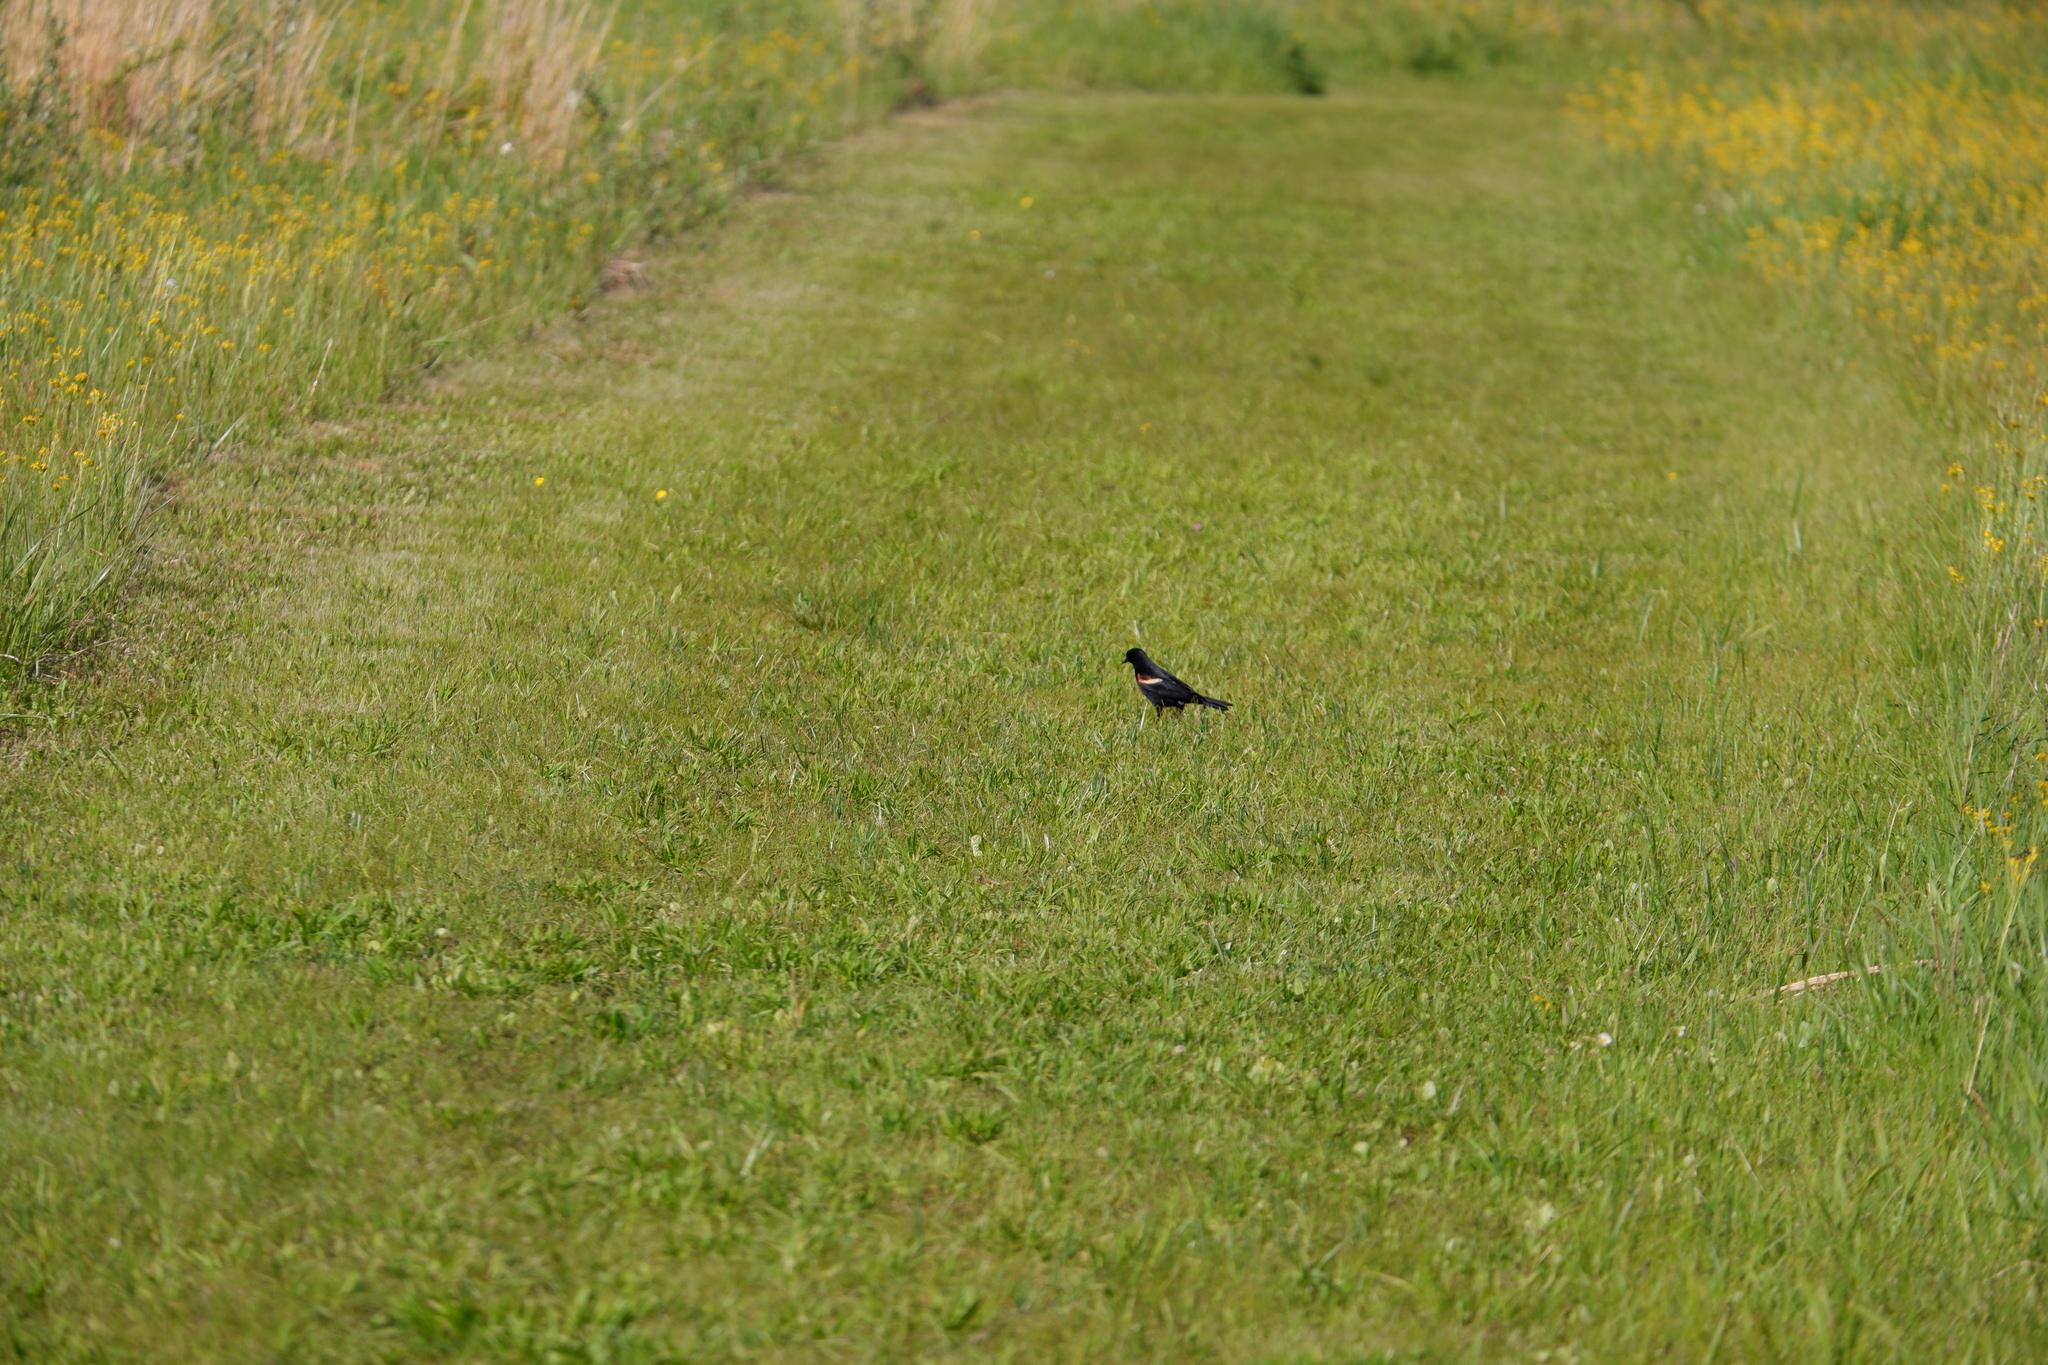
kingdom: Animalia
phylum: Chordata
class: Aves
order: Passeriformes
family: Icteridae
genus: Agelaius
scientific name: Agelaius phoeniceus
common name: Red-winged blackbird
